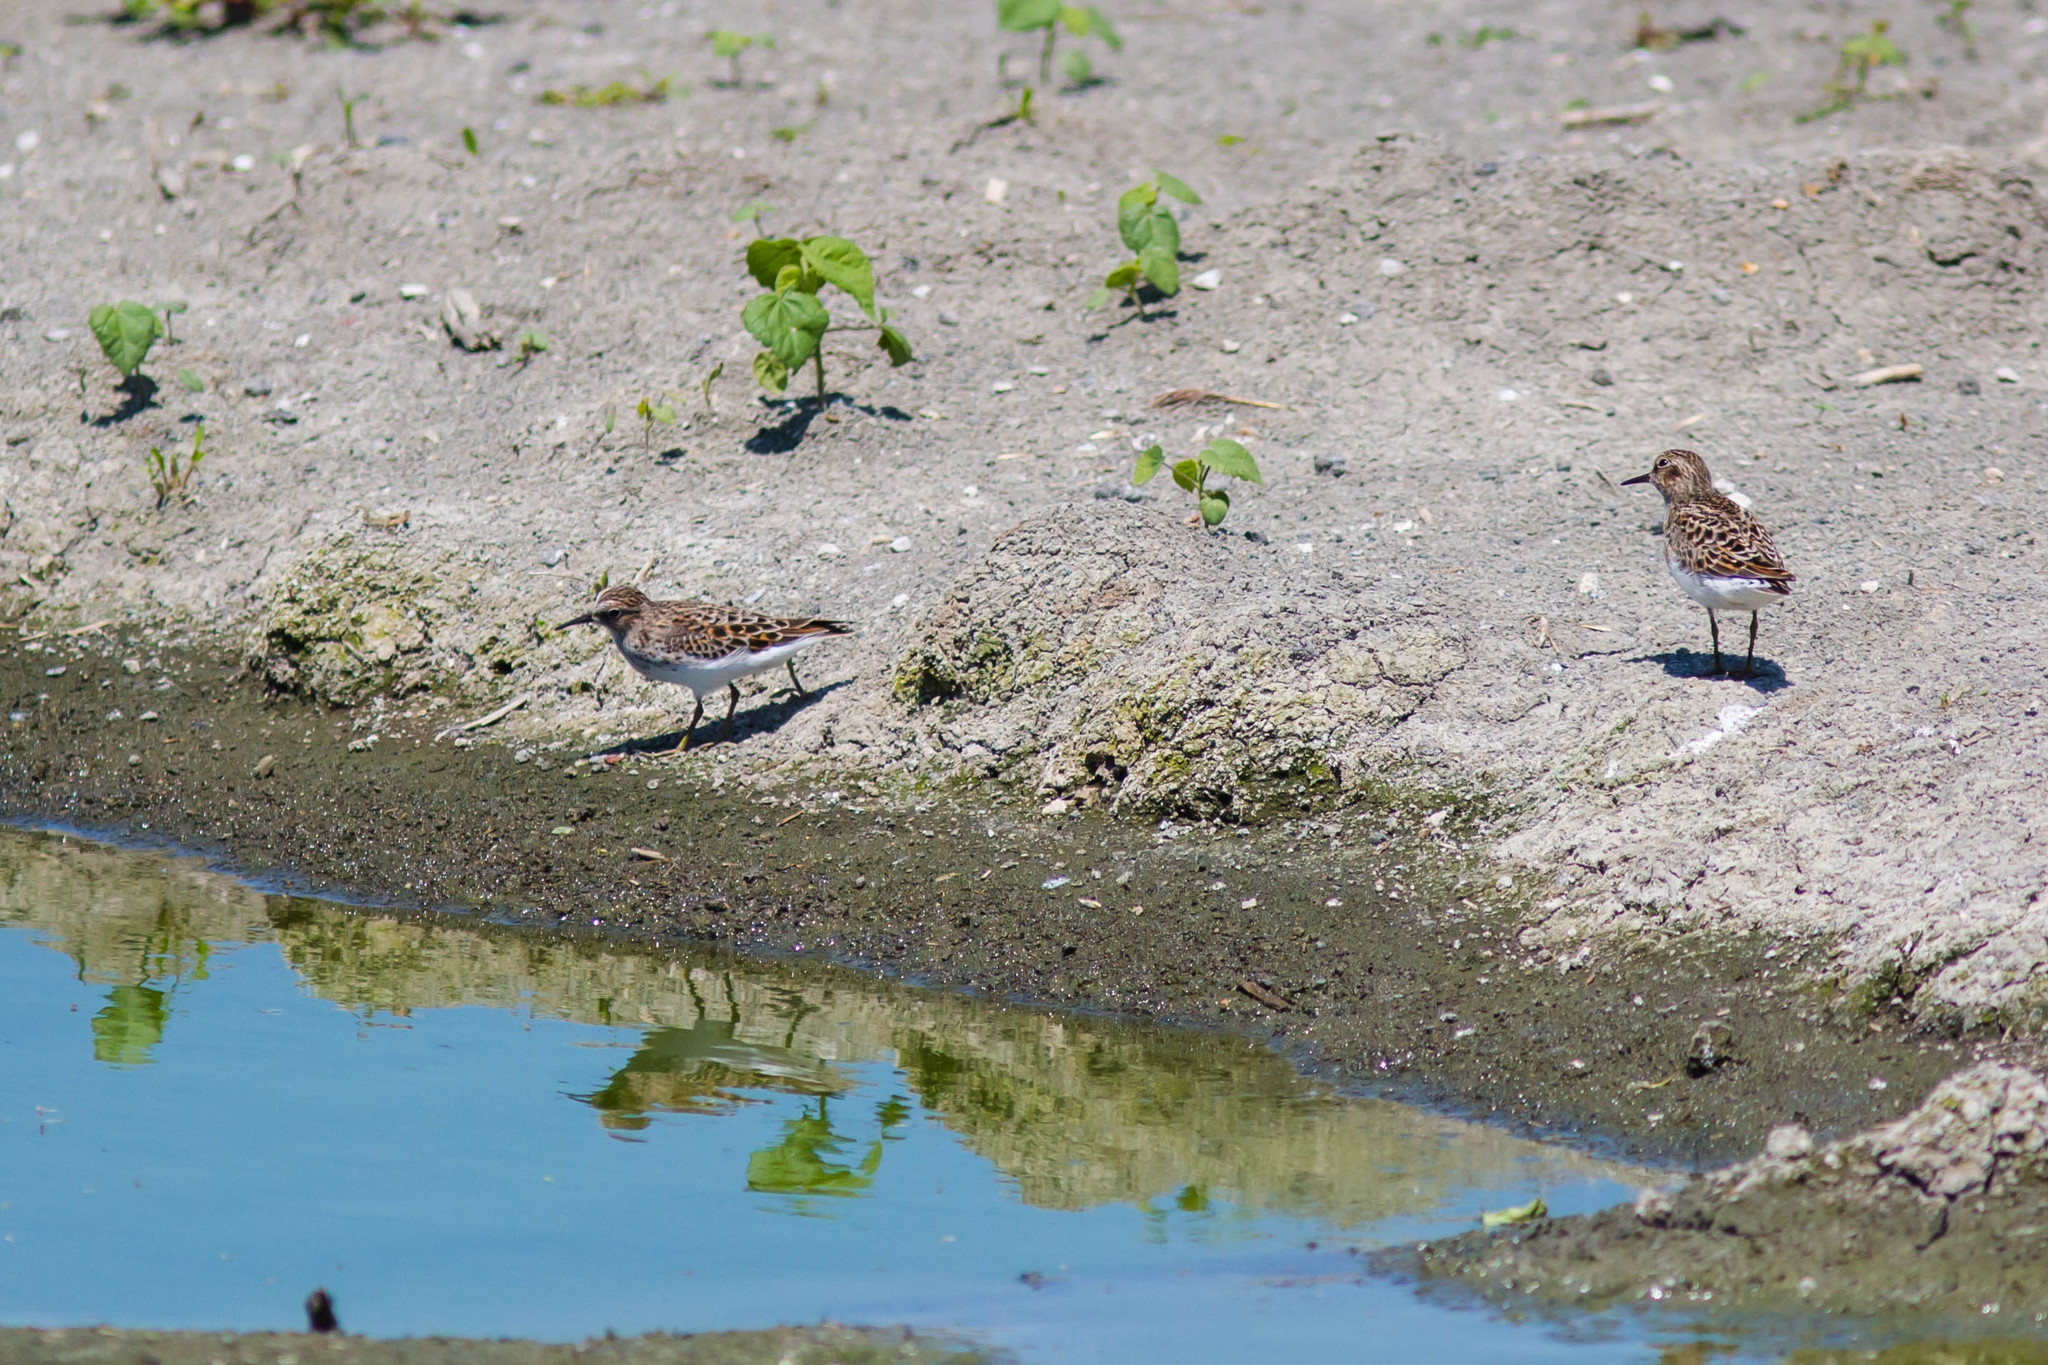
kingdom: Animalia
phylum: Chordata
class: Aves
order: Charadriiformes
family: Scolopacidae
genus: Calidris
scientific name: Calidris minutilla
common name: Least sandpiper
